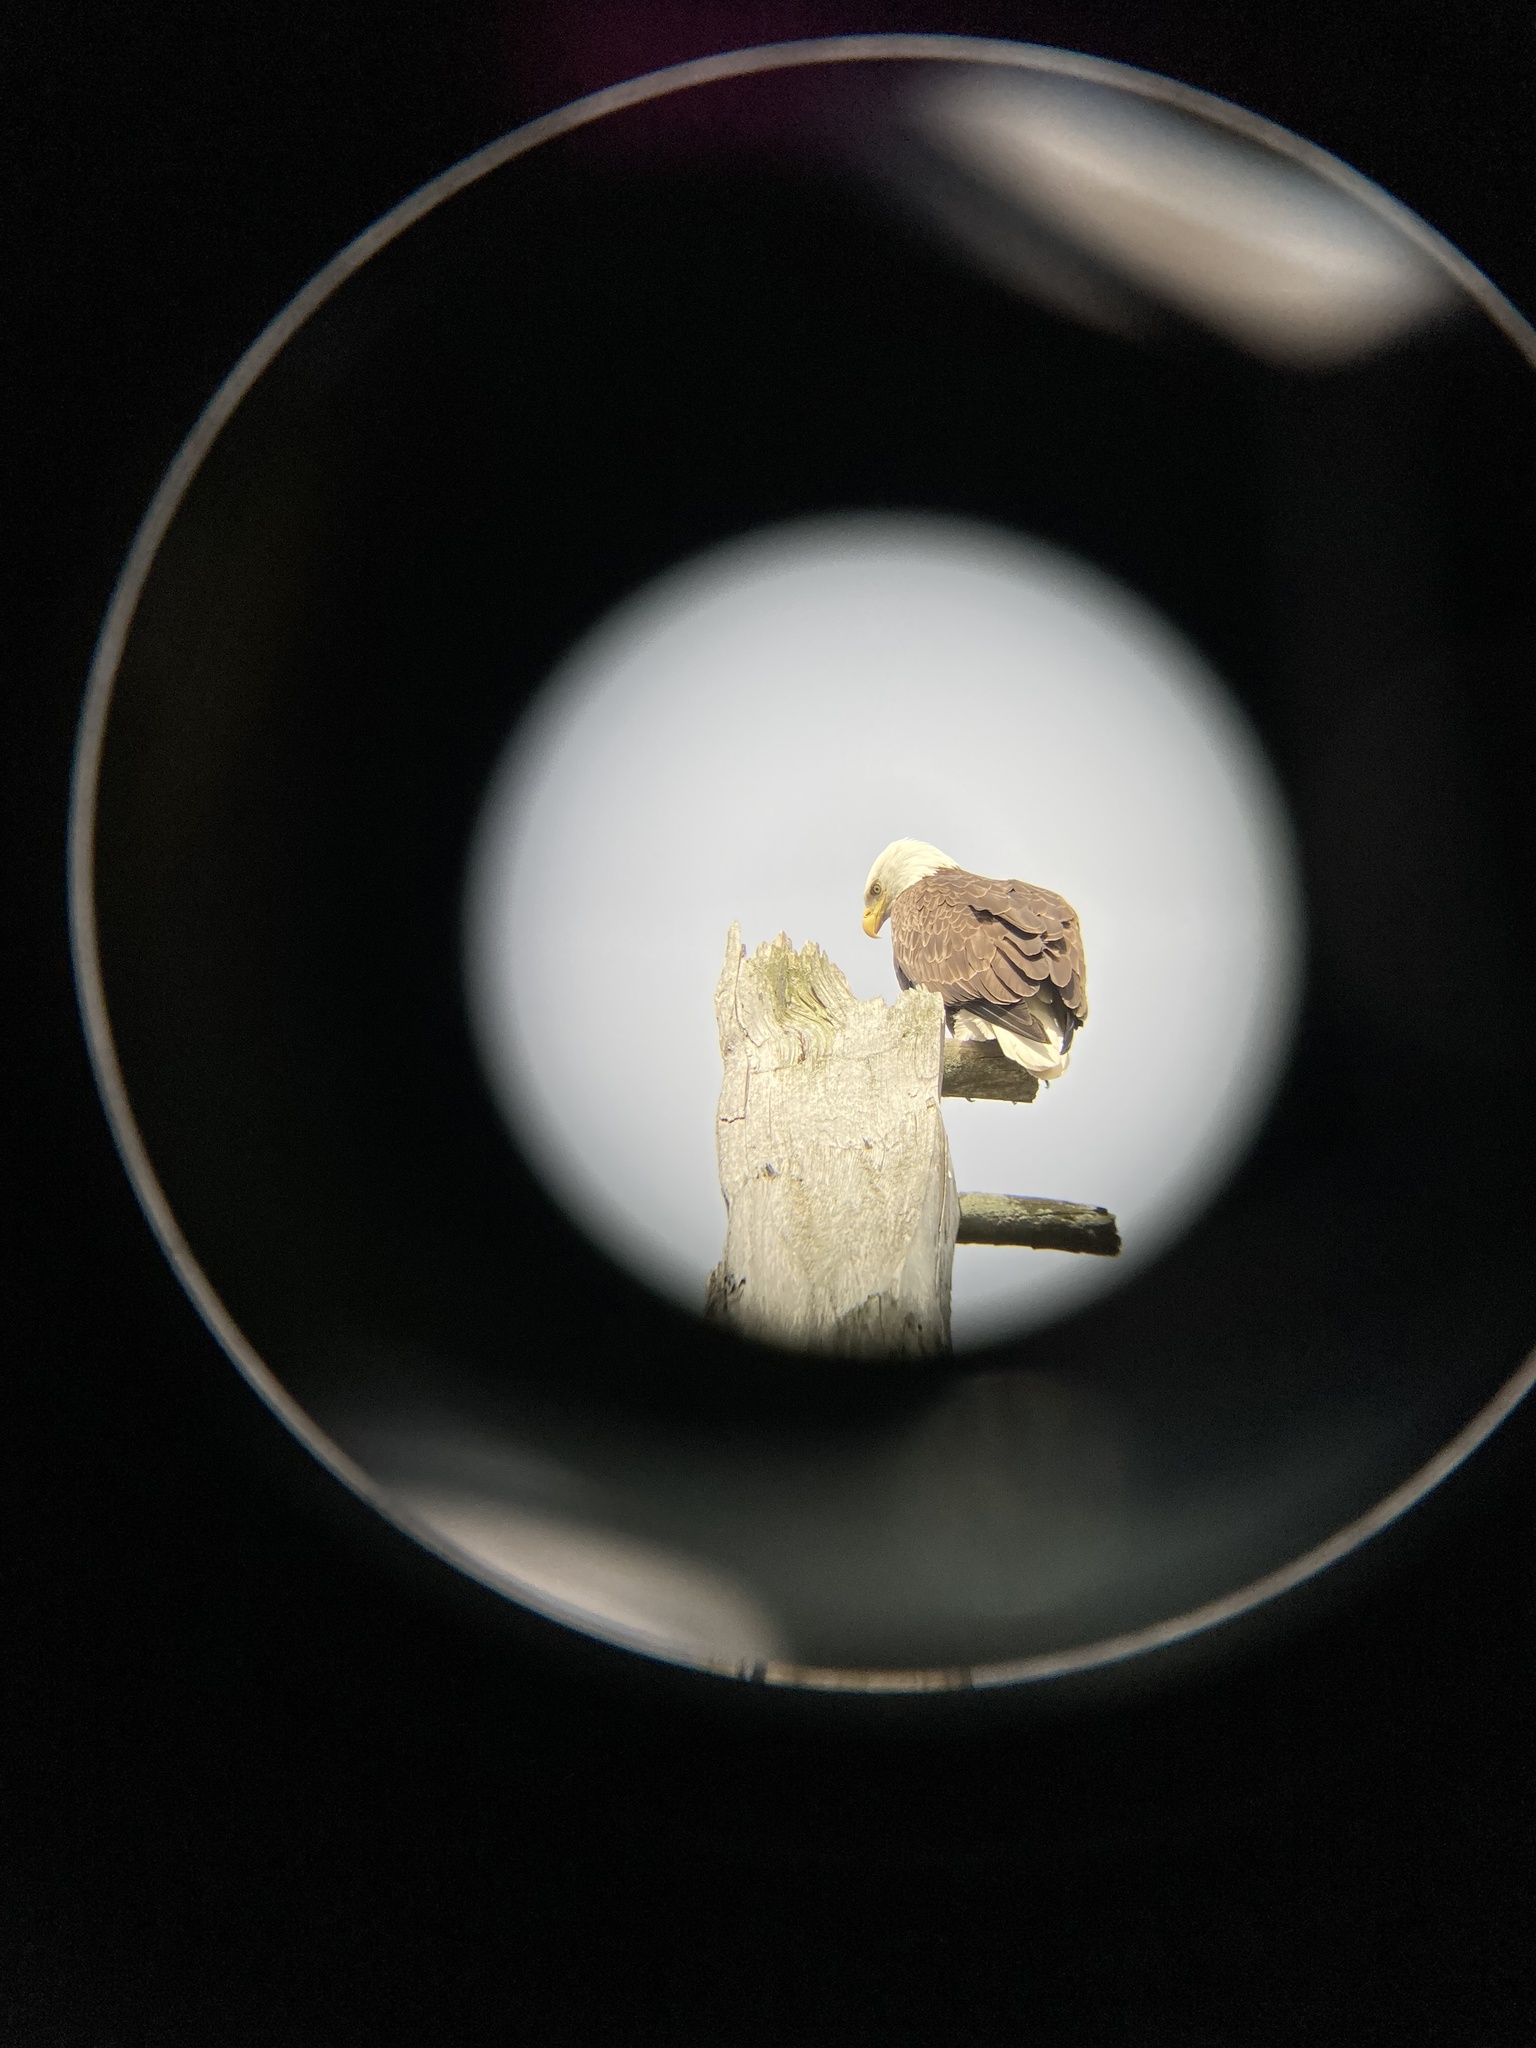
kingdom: Animalia
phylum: Chordata
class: Aves
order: Accipitriformes
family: Accipitridae
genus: Haliaeetus
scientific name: Haliaeetus leucocephalus
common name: Bald eagle
